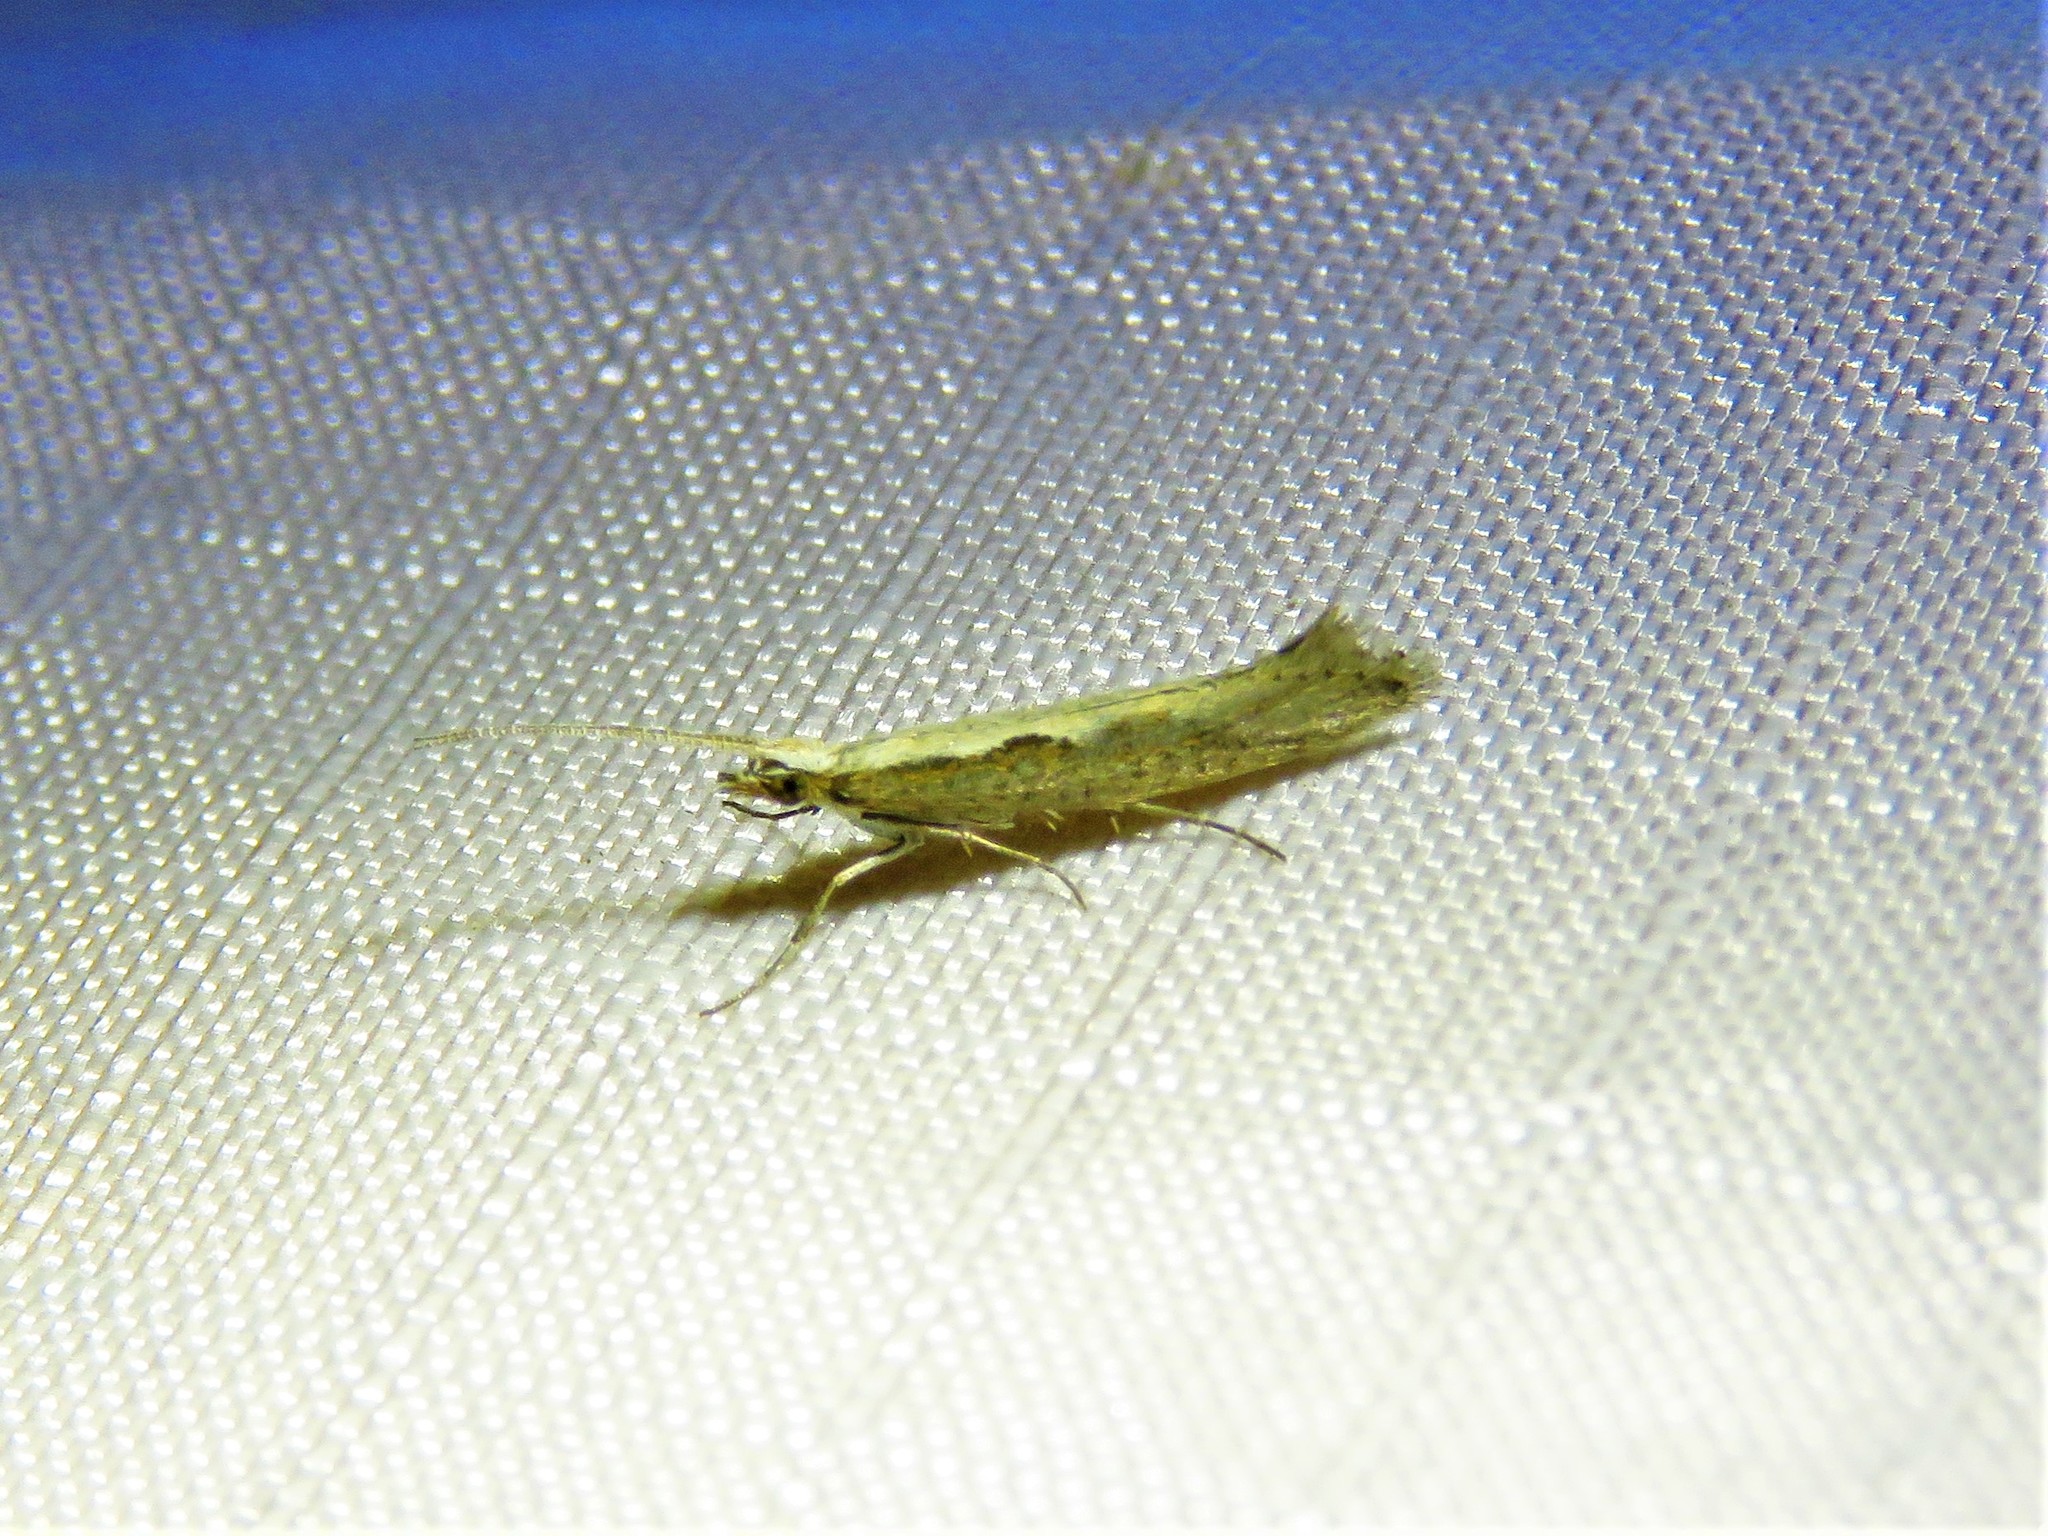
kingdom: Animalia
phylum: Arthropoda
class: Insecta
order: Lepidoptera
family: Plutellidae
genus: Plutella
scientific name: Plutella xylostella
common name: Diamond-back moth
